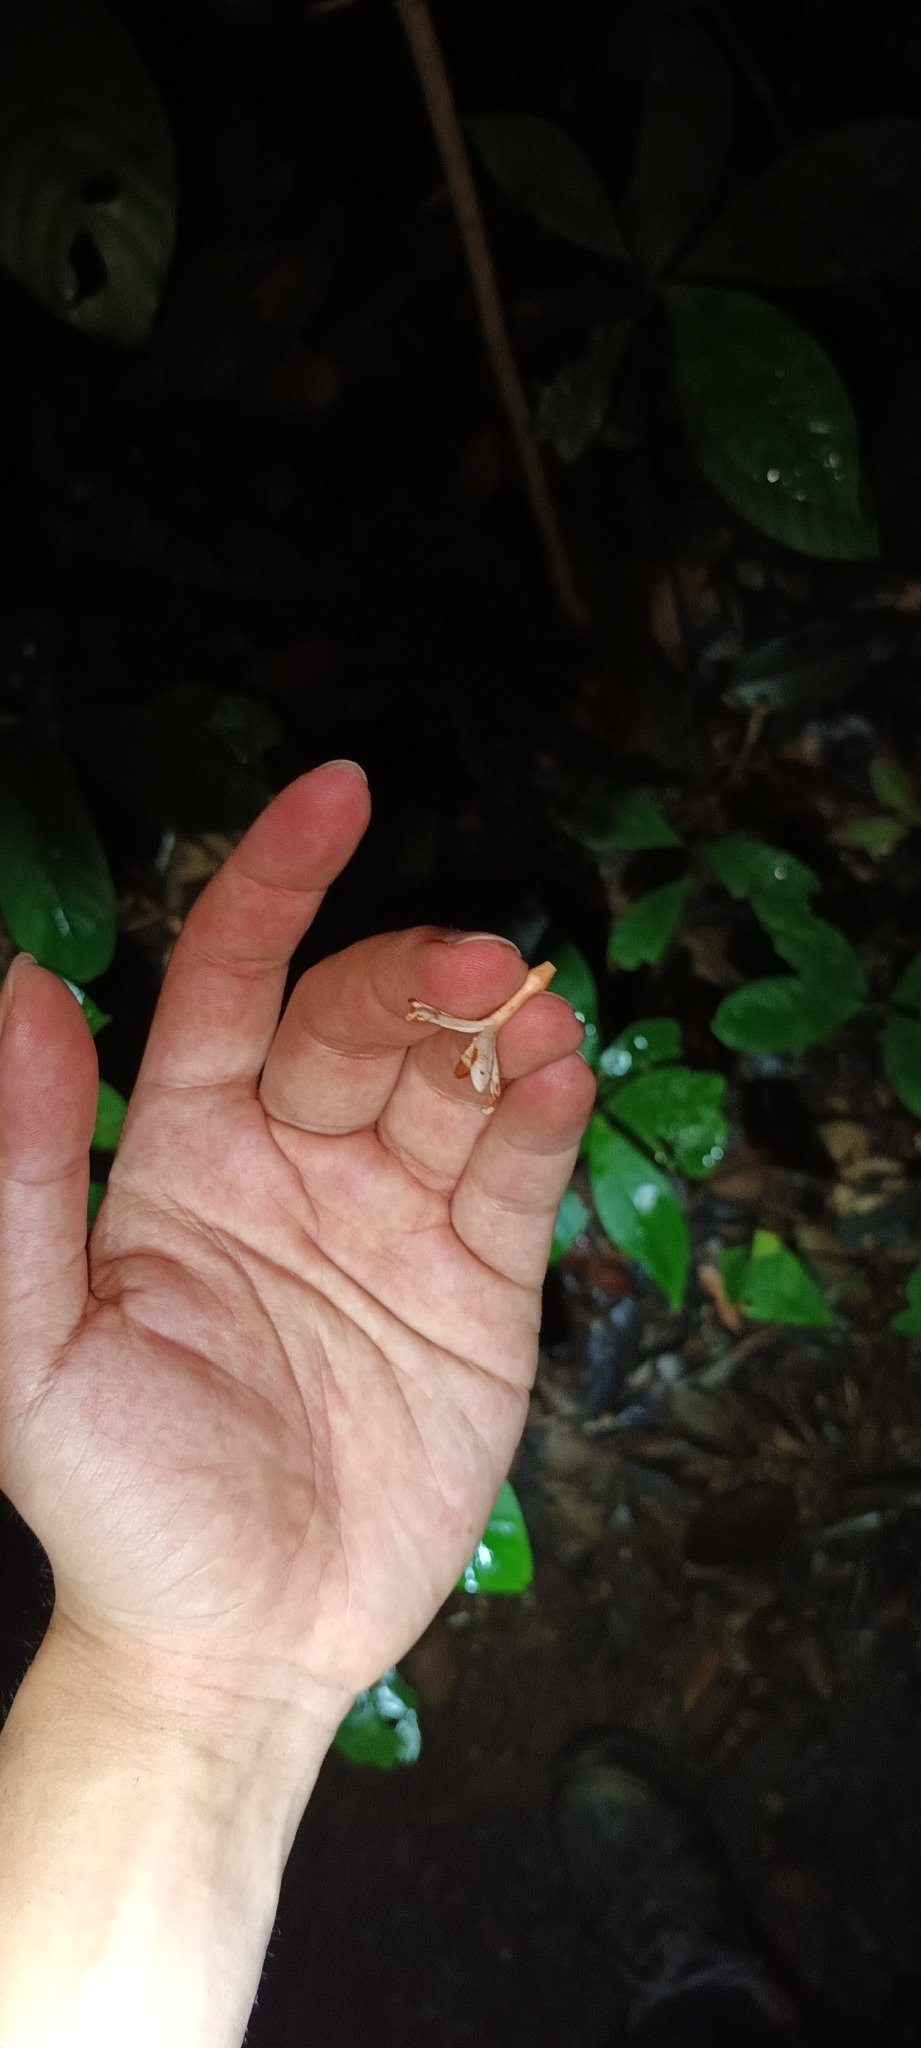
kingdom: Plantae
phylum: Tracheophyta
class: Magnoliopsida
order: Gentianales
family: Apocynaceae
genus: Willughbeia
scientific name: Willughbeia tenuiflora
